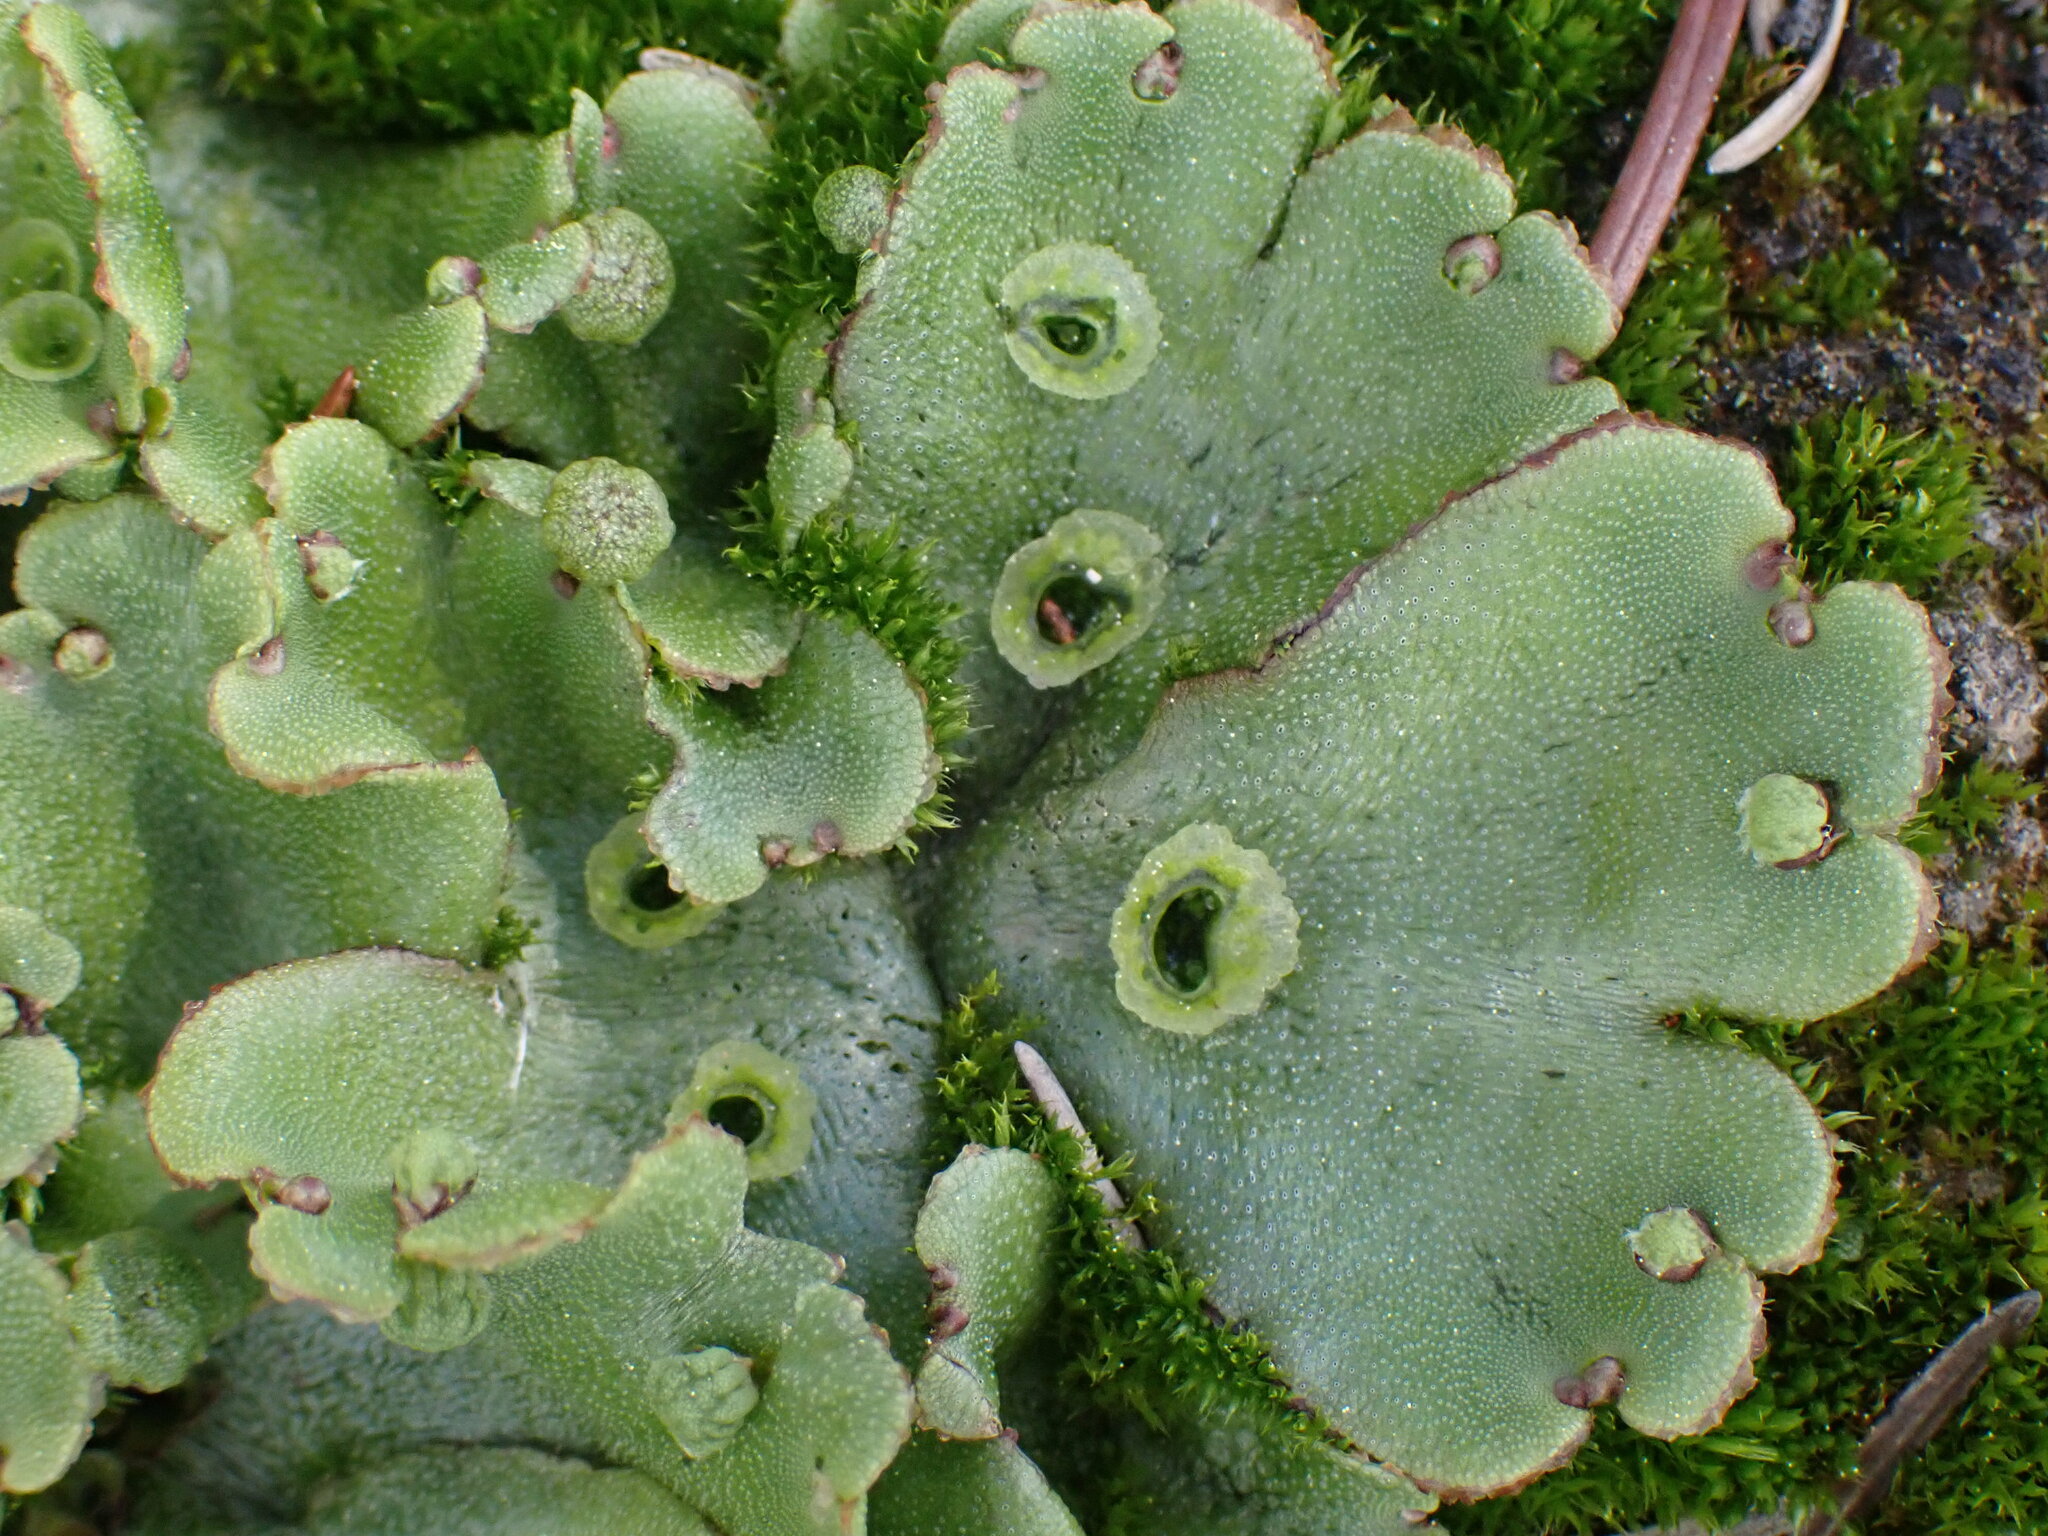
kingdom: Plantae
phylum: Marchantiophyta
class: Marchantiopsida
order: Marchantiales
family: Marchantiaceae
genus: Marchantia
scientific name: Marchantia polymorpha
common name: Common liverwort
